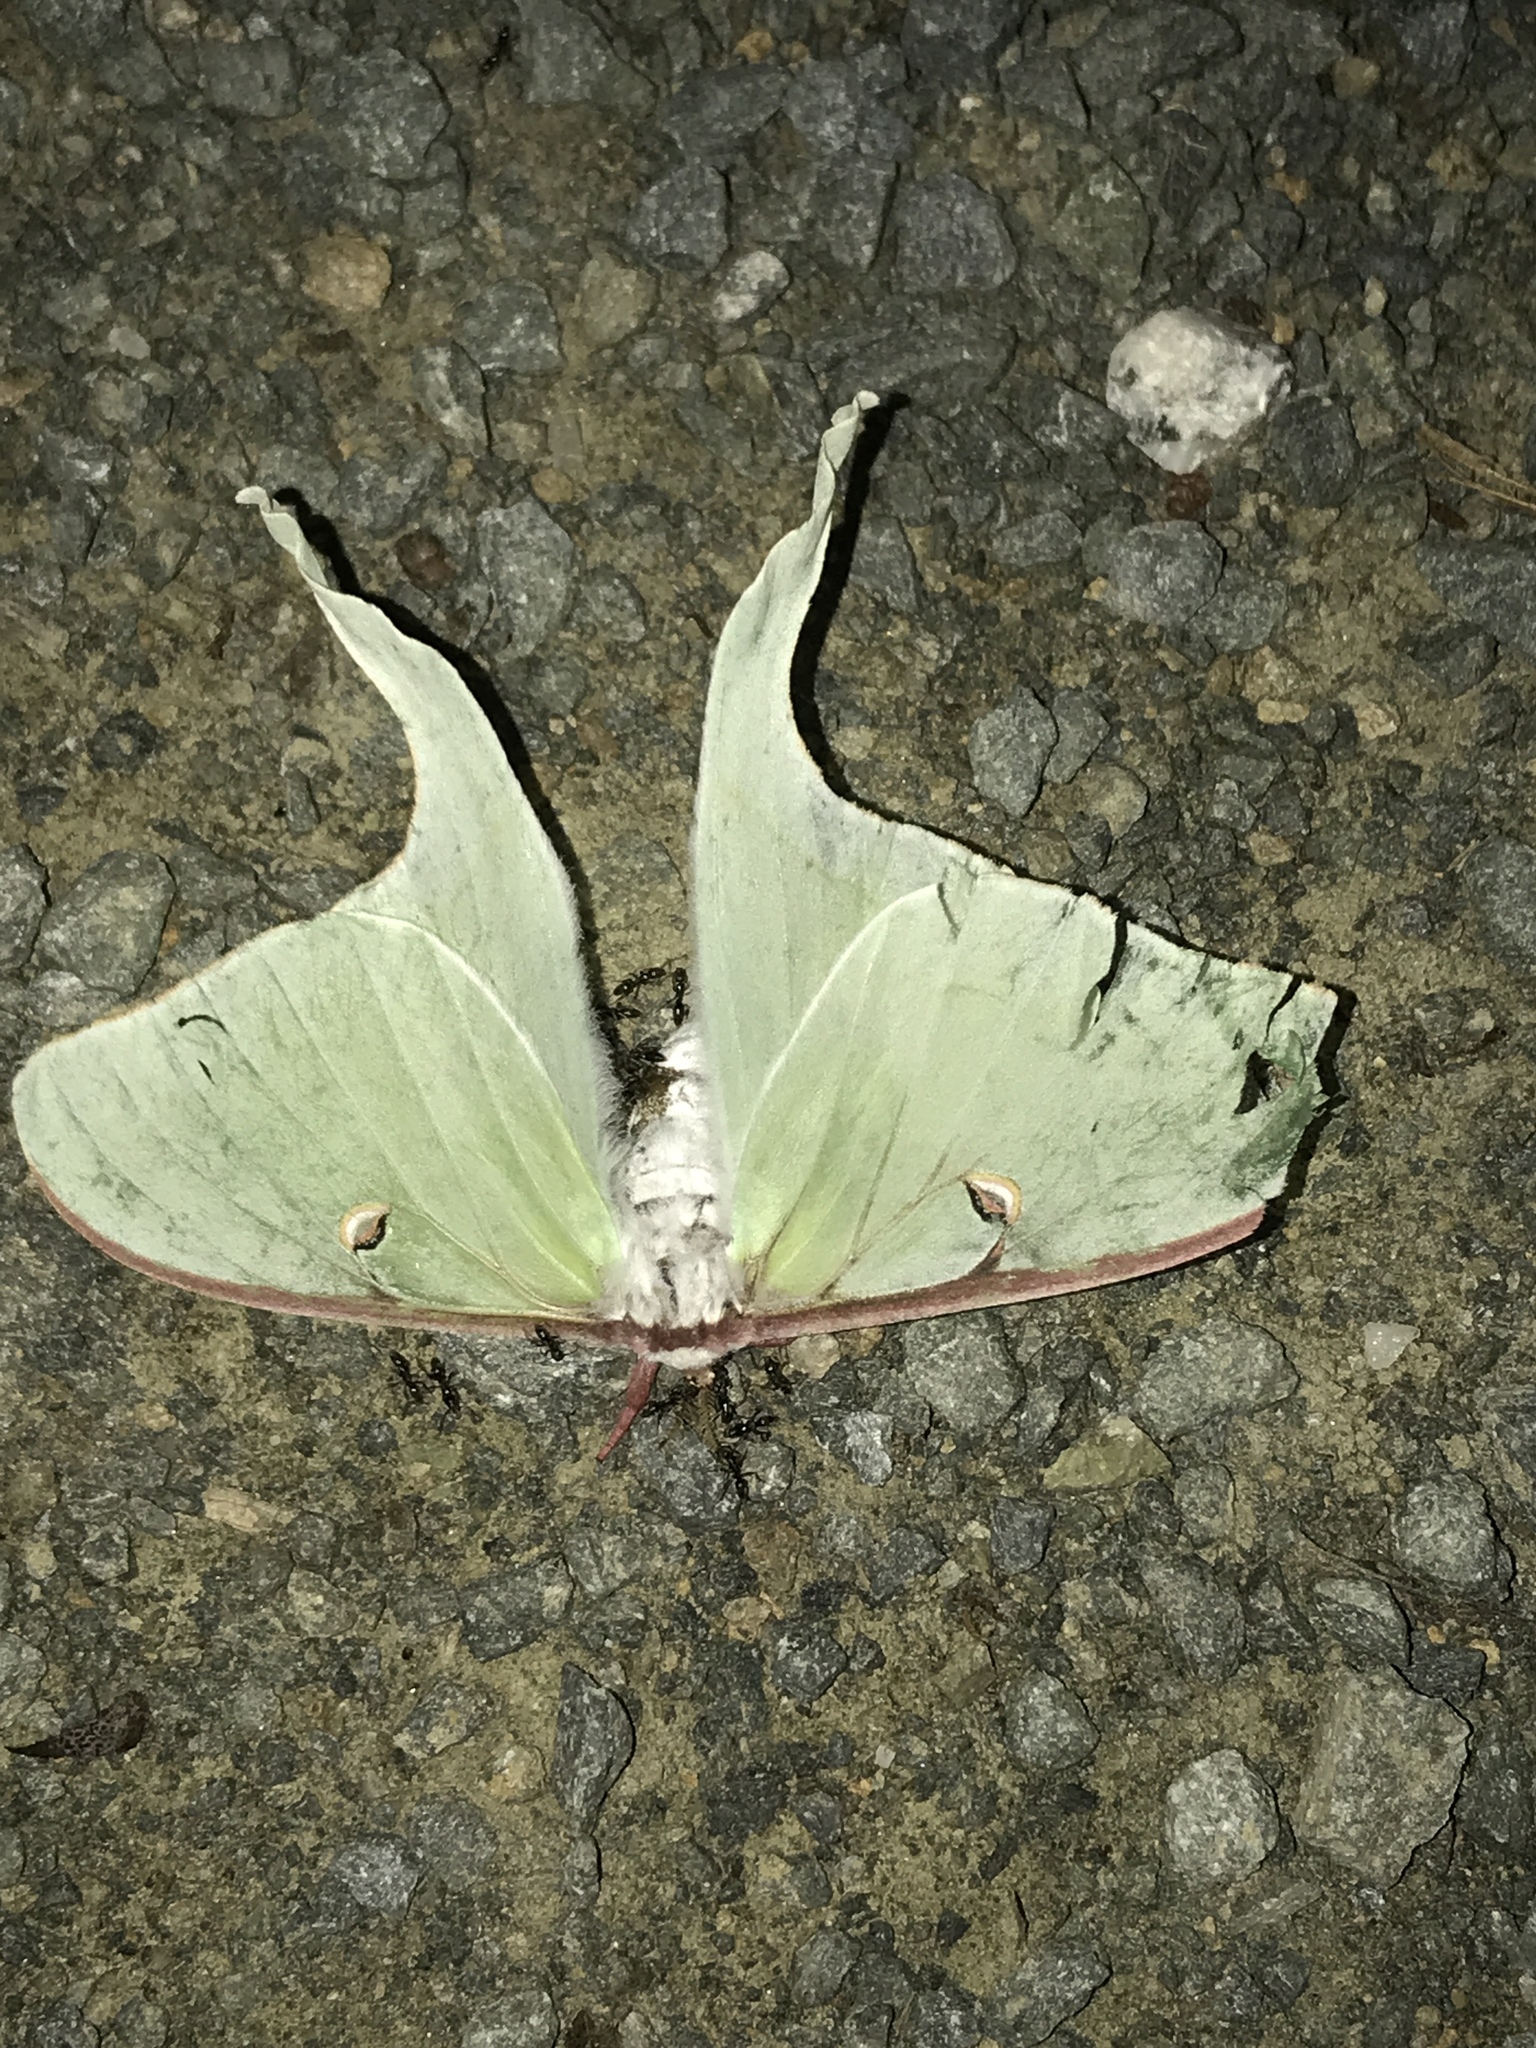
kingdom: Animalia
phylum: Arthropoda
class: Insecta
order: Lepidoptera
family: Saturniidae
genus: Actias
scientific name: Actias luna
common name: Luna moth
